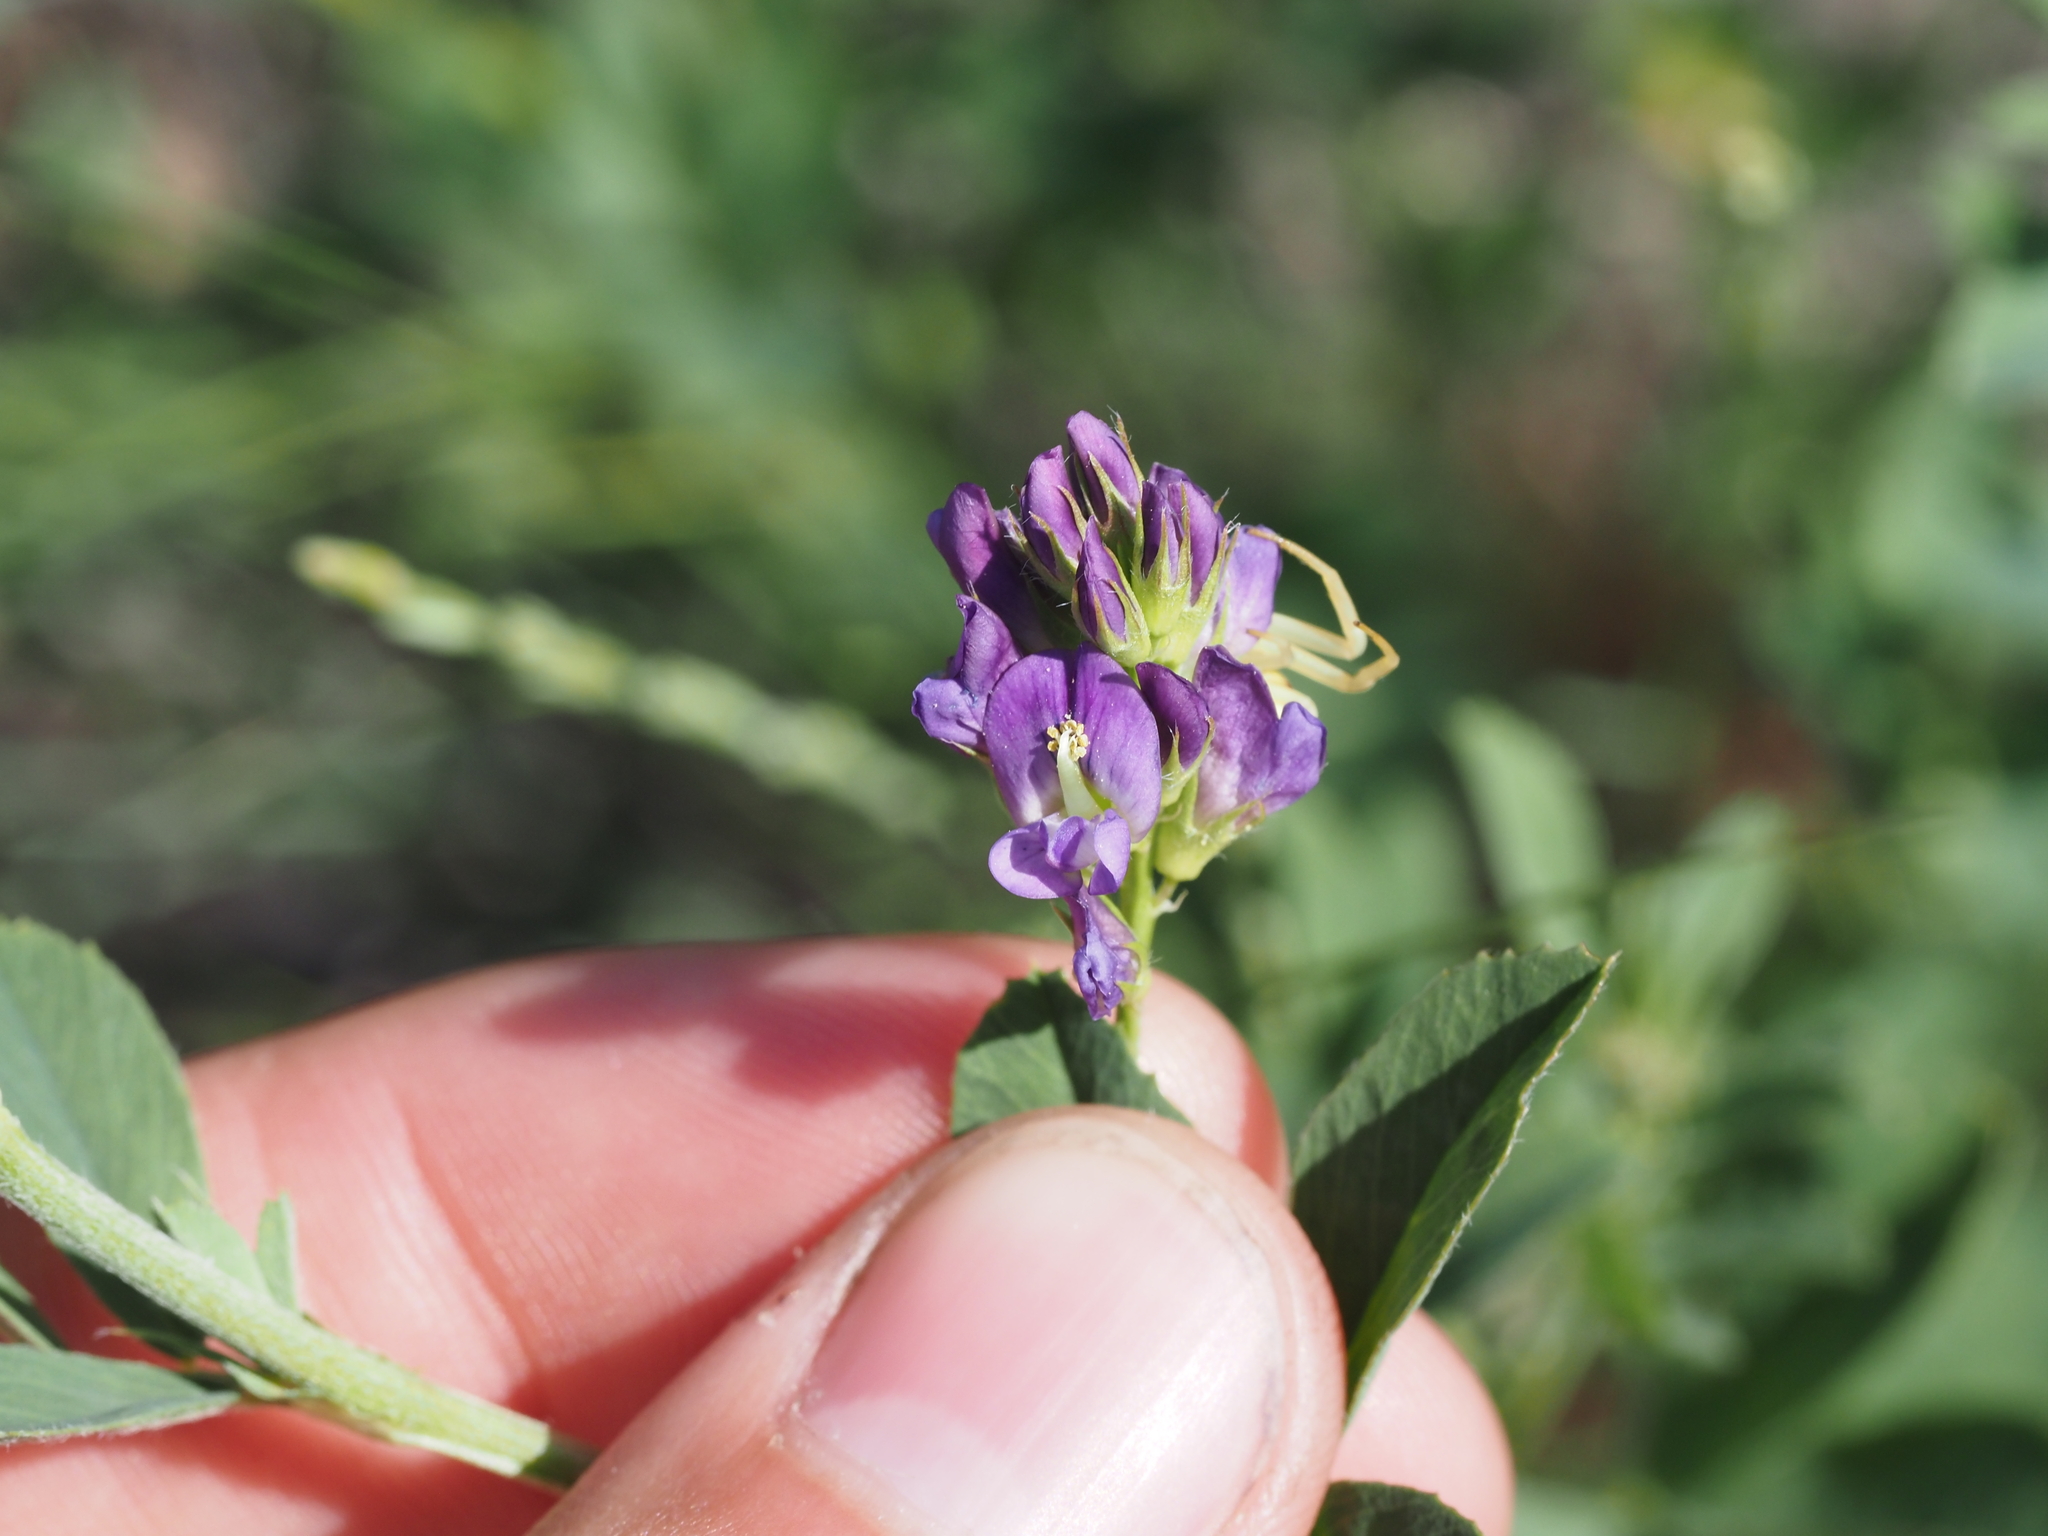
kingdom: Plantae
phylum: Tracheophyta
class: Magnoliopsida
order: Fabales
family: Fabaceae
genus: Medicago
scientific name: Medicago sativa
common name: Alfalfa
